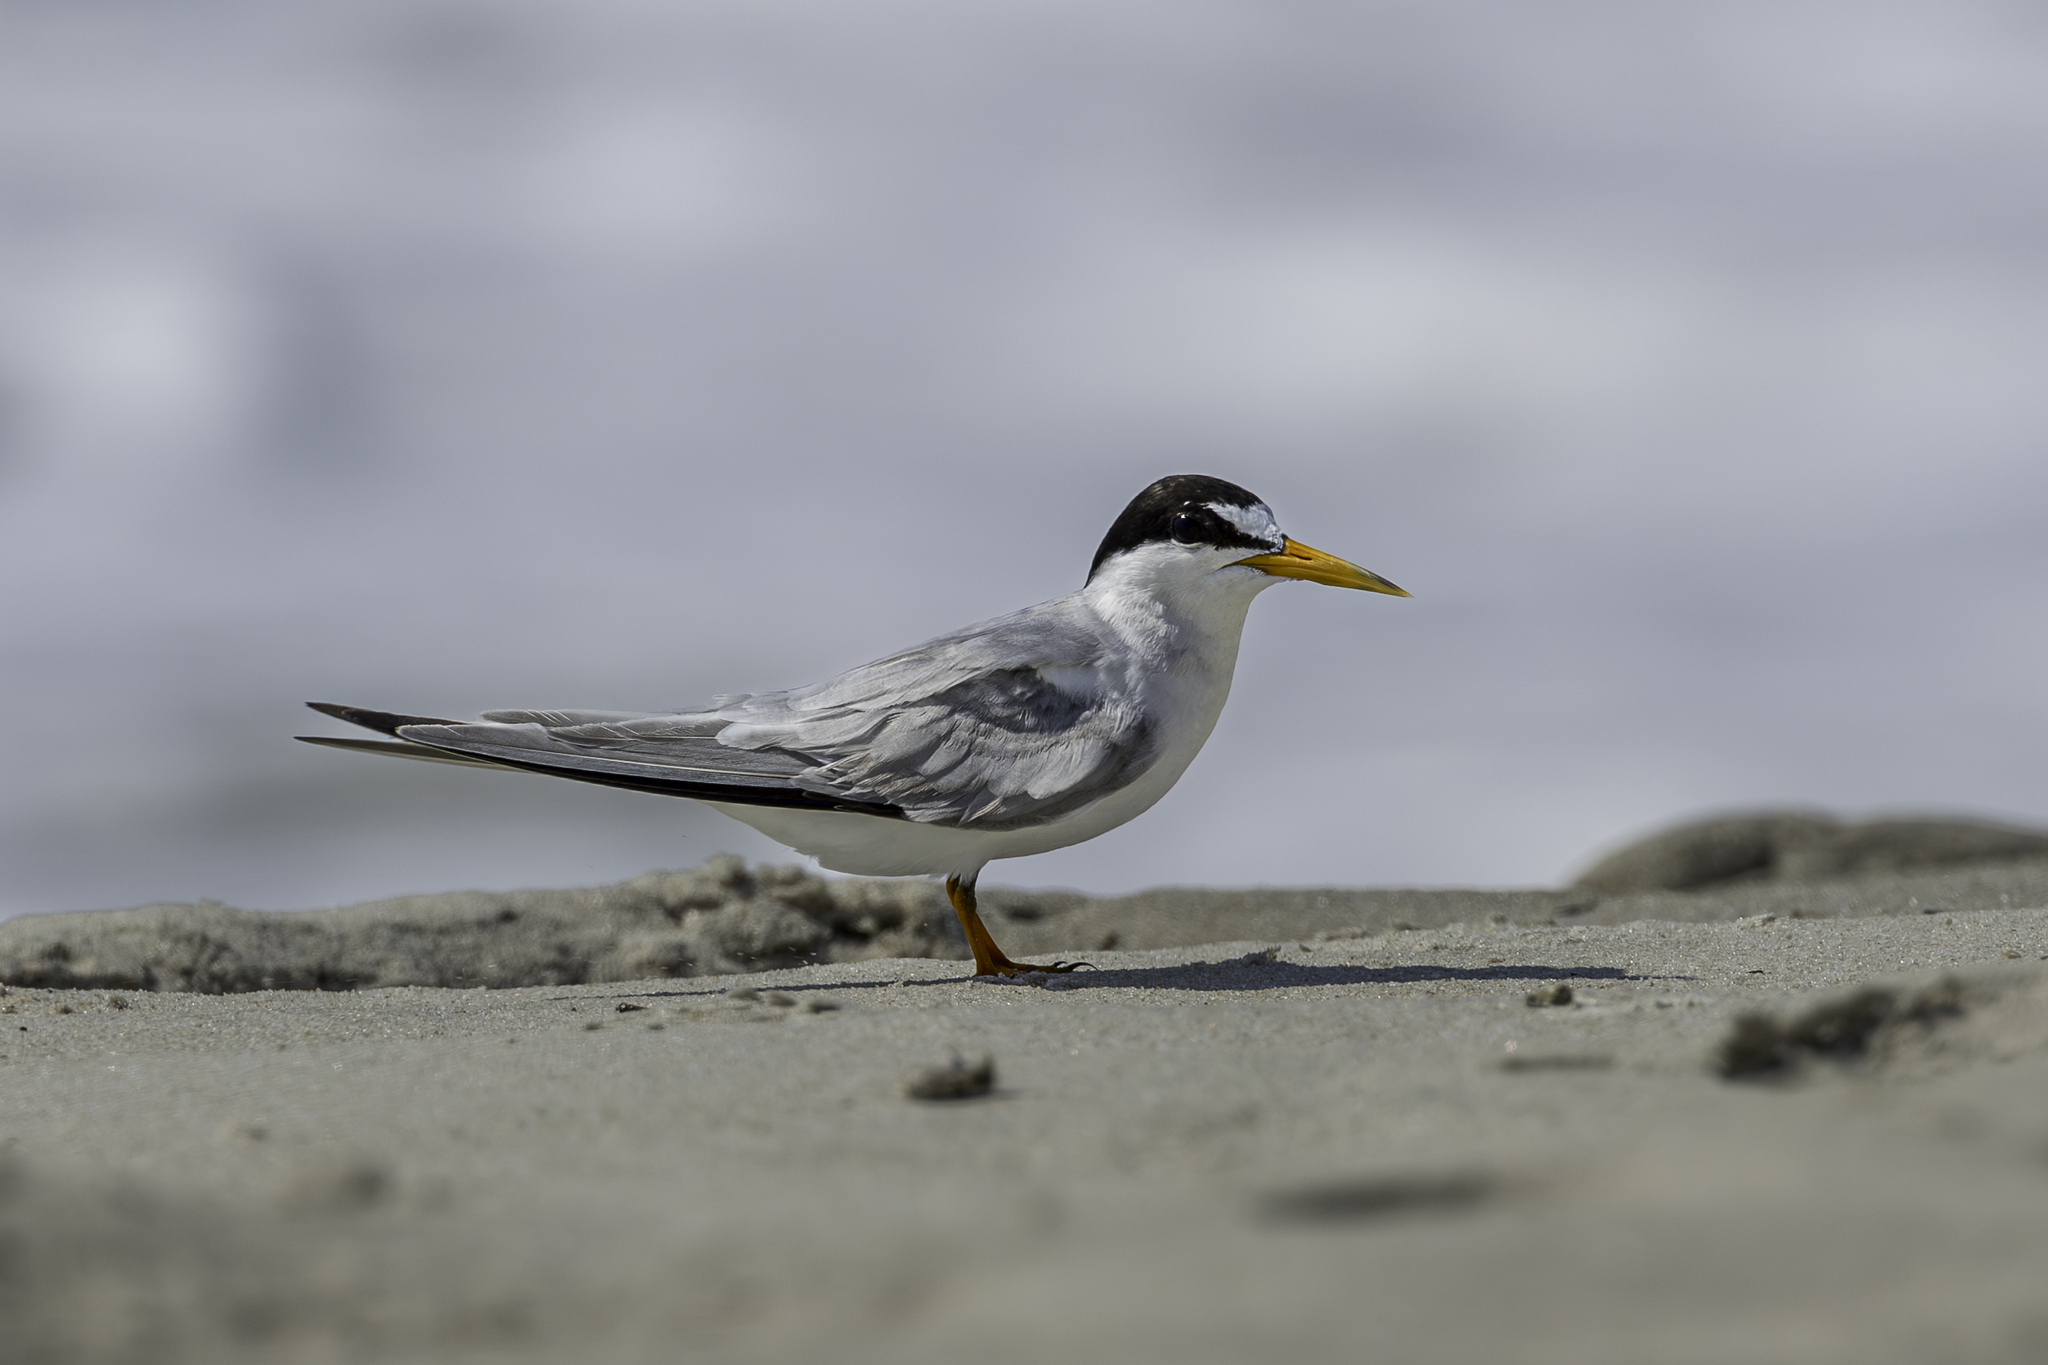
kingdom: Animalia
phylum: Chordata
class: Aves
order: Charadriiformes
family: Laridae
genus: Sternula
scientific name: Sternula antillarum
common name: Least tern
